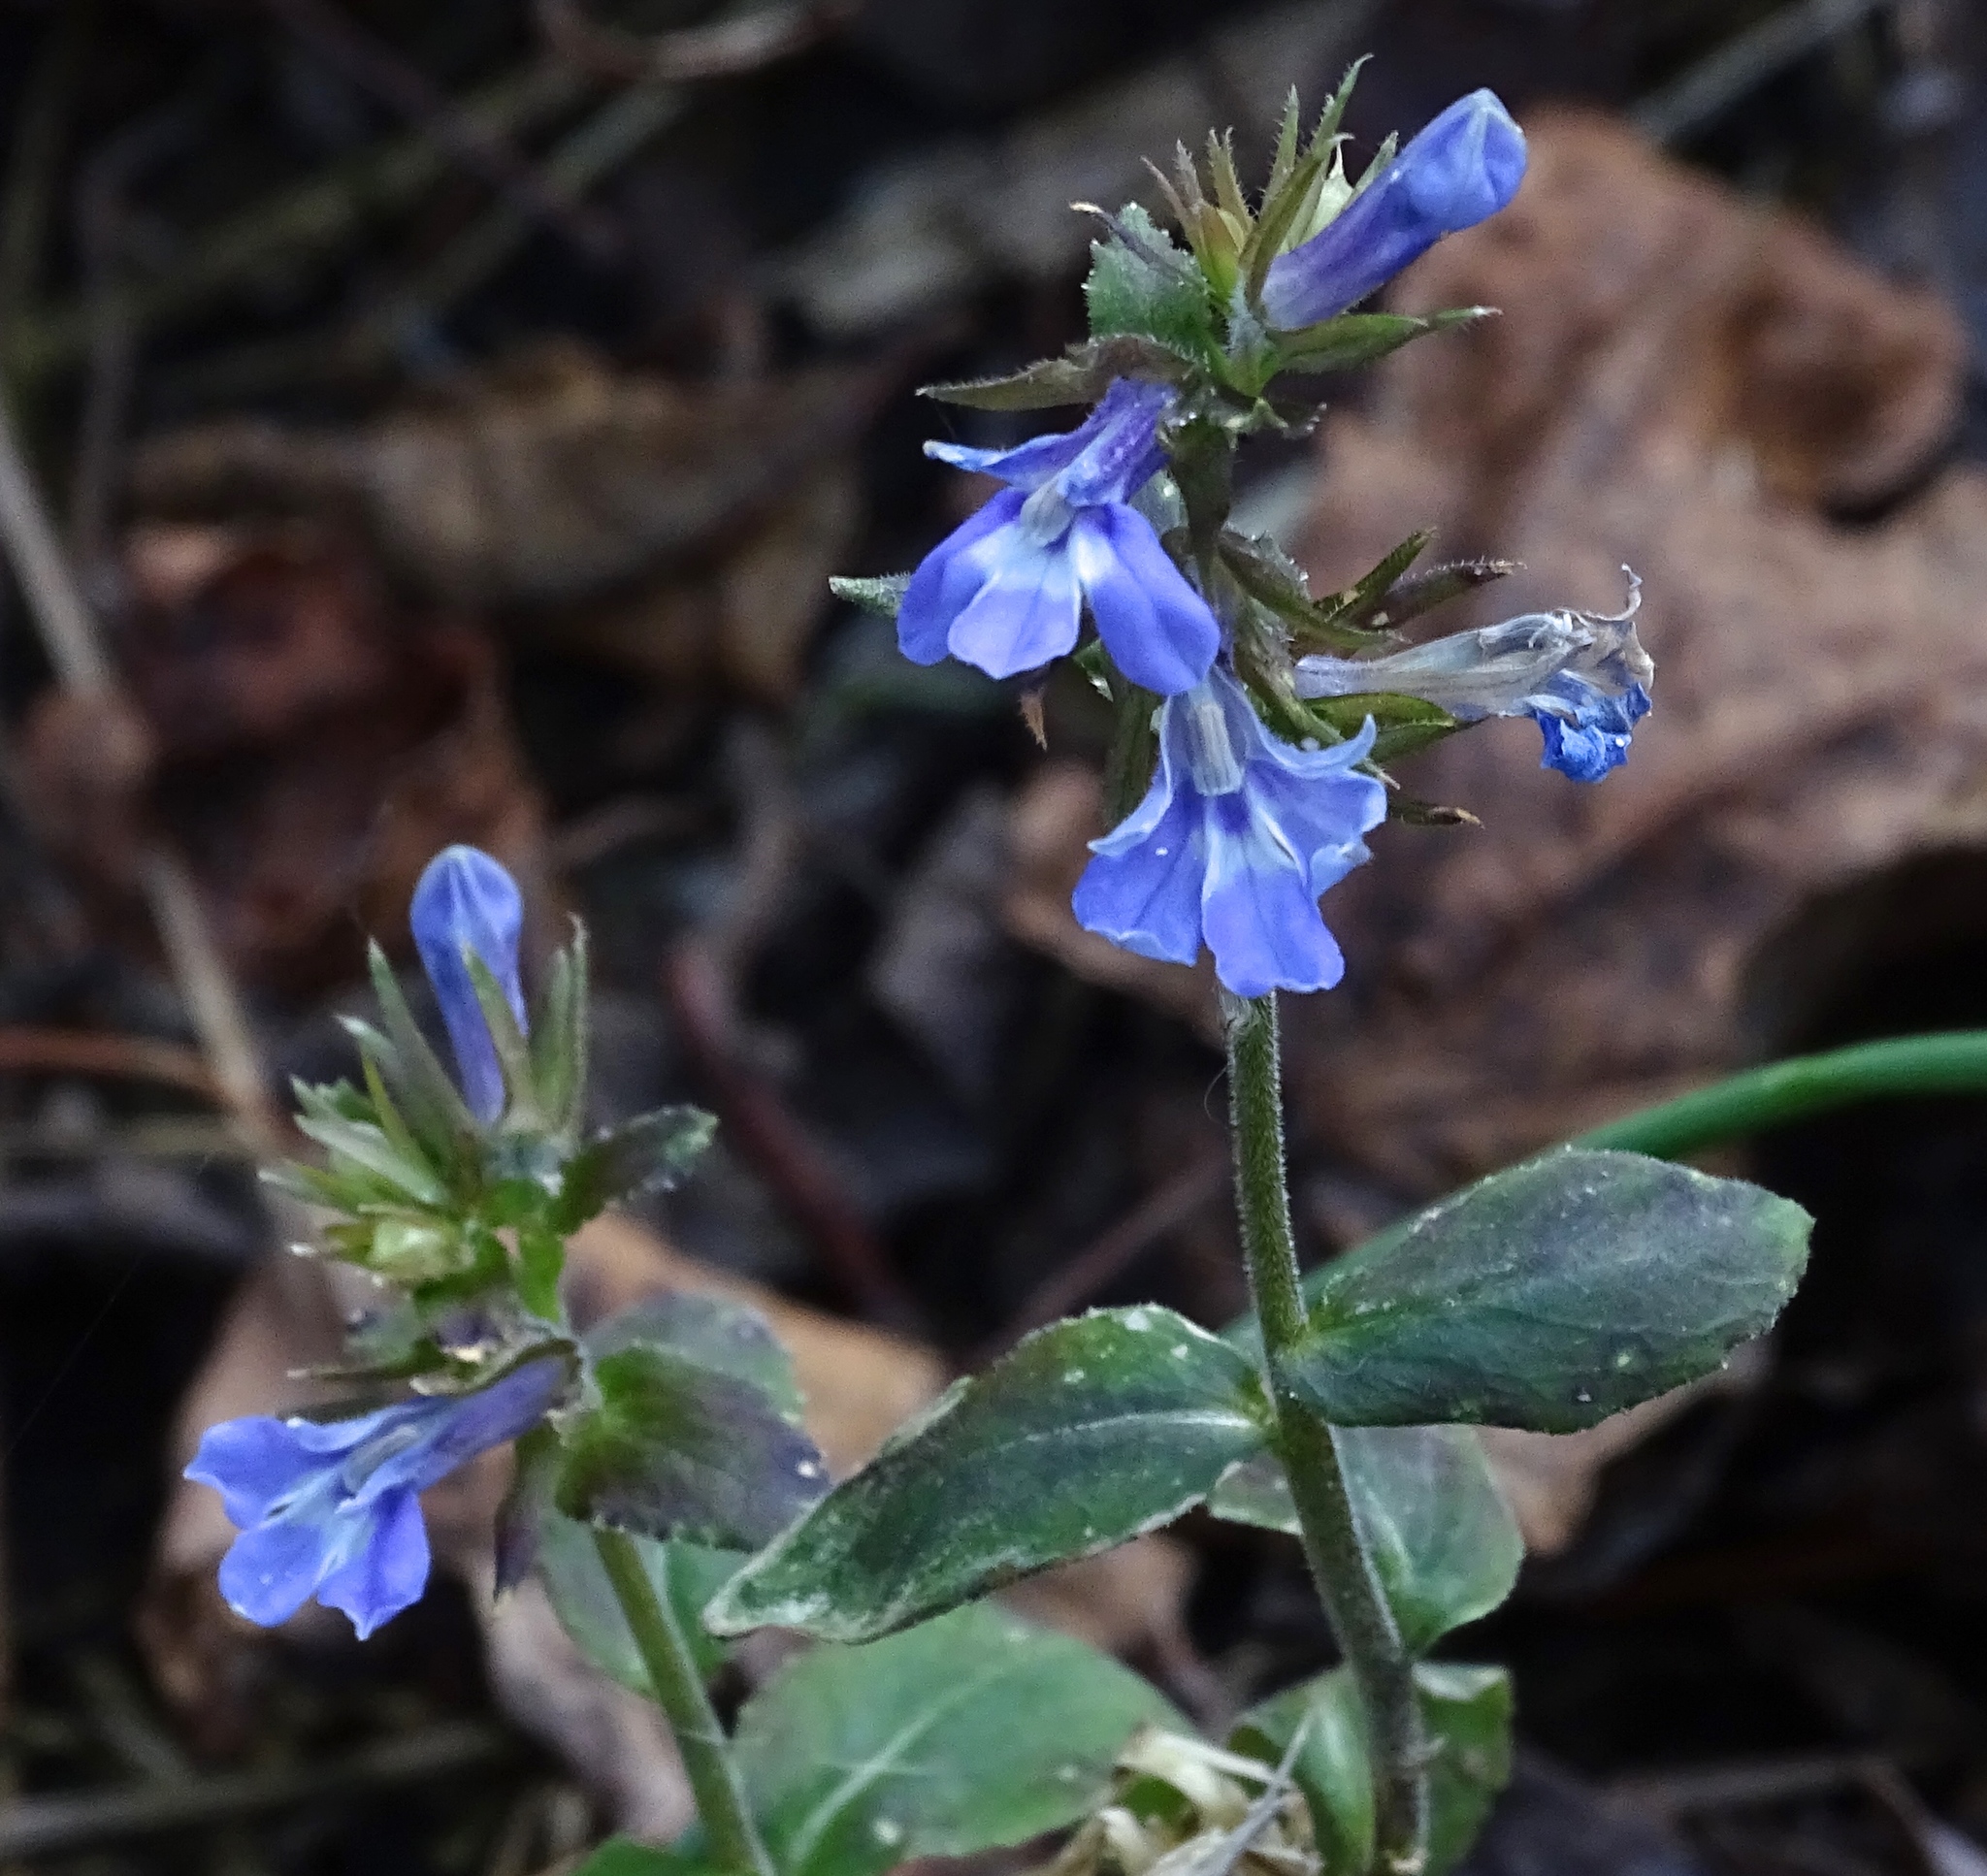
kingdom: Plantae
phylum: Tracheophyta
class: Magnoliopsida
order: Asterales
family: Campanulaceae
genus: Lobelia
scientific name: Lobelia puberula
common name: Purple dewdrop
